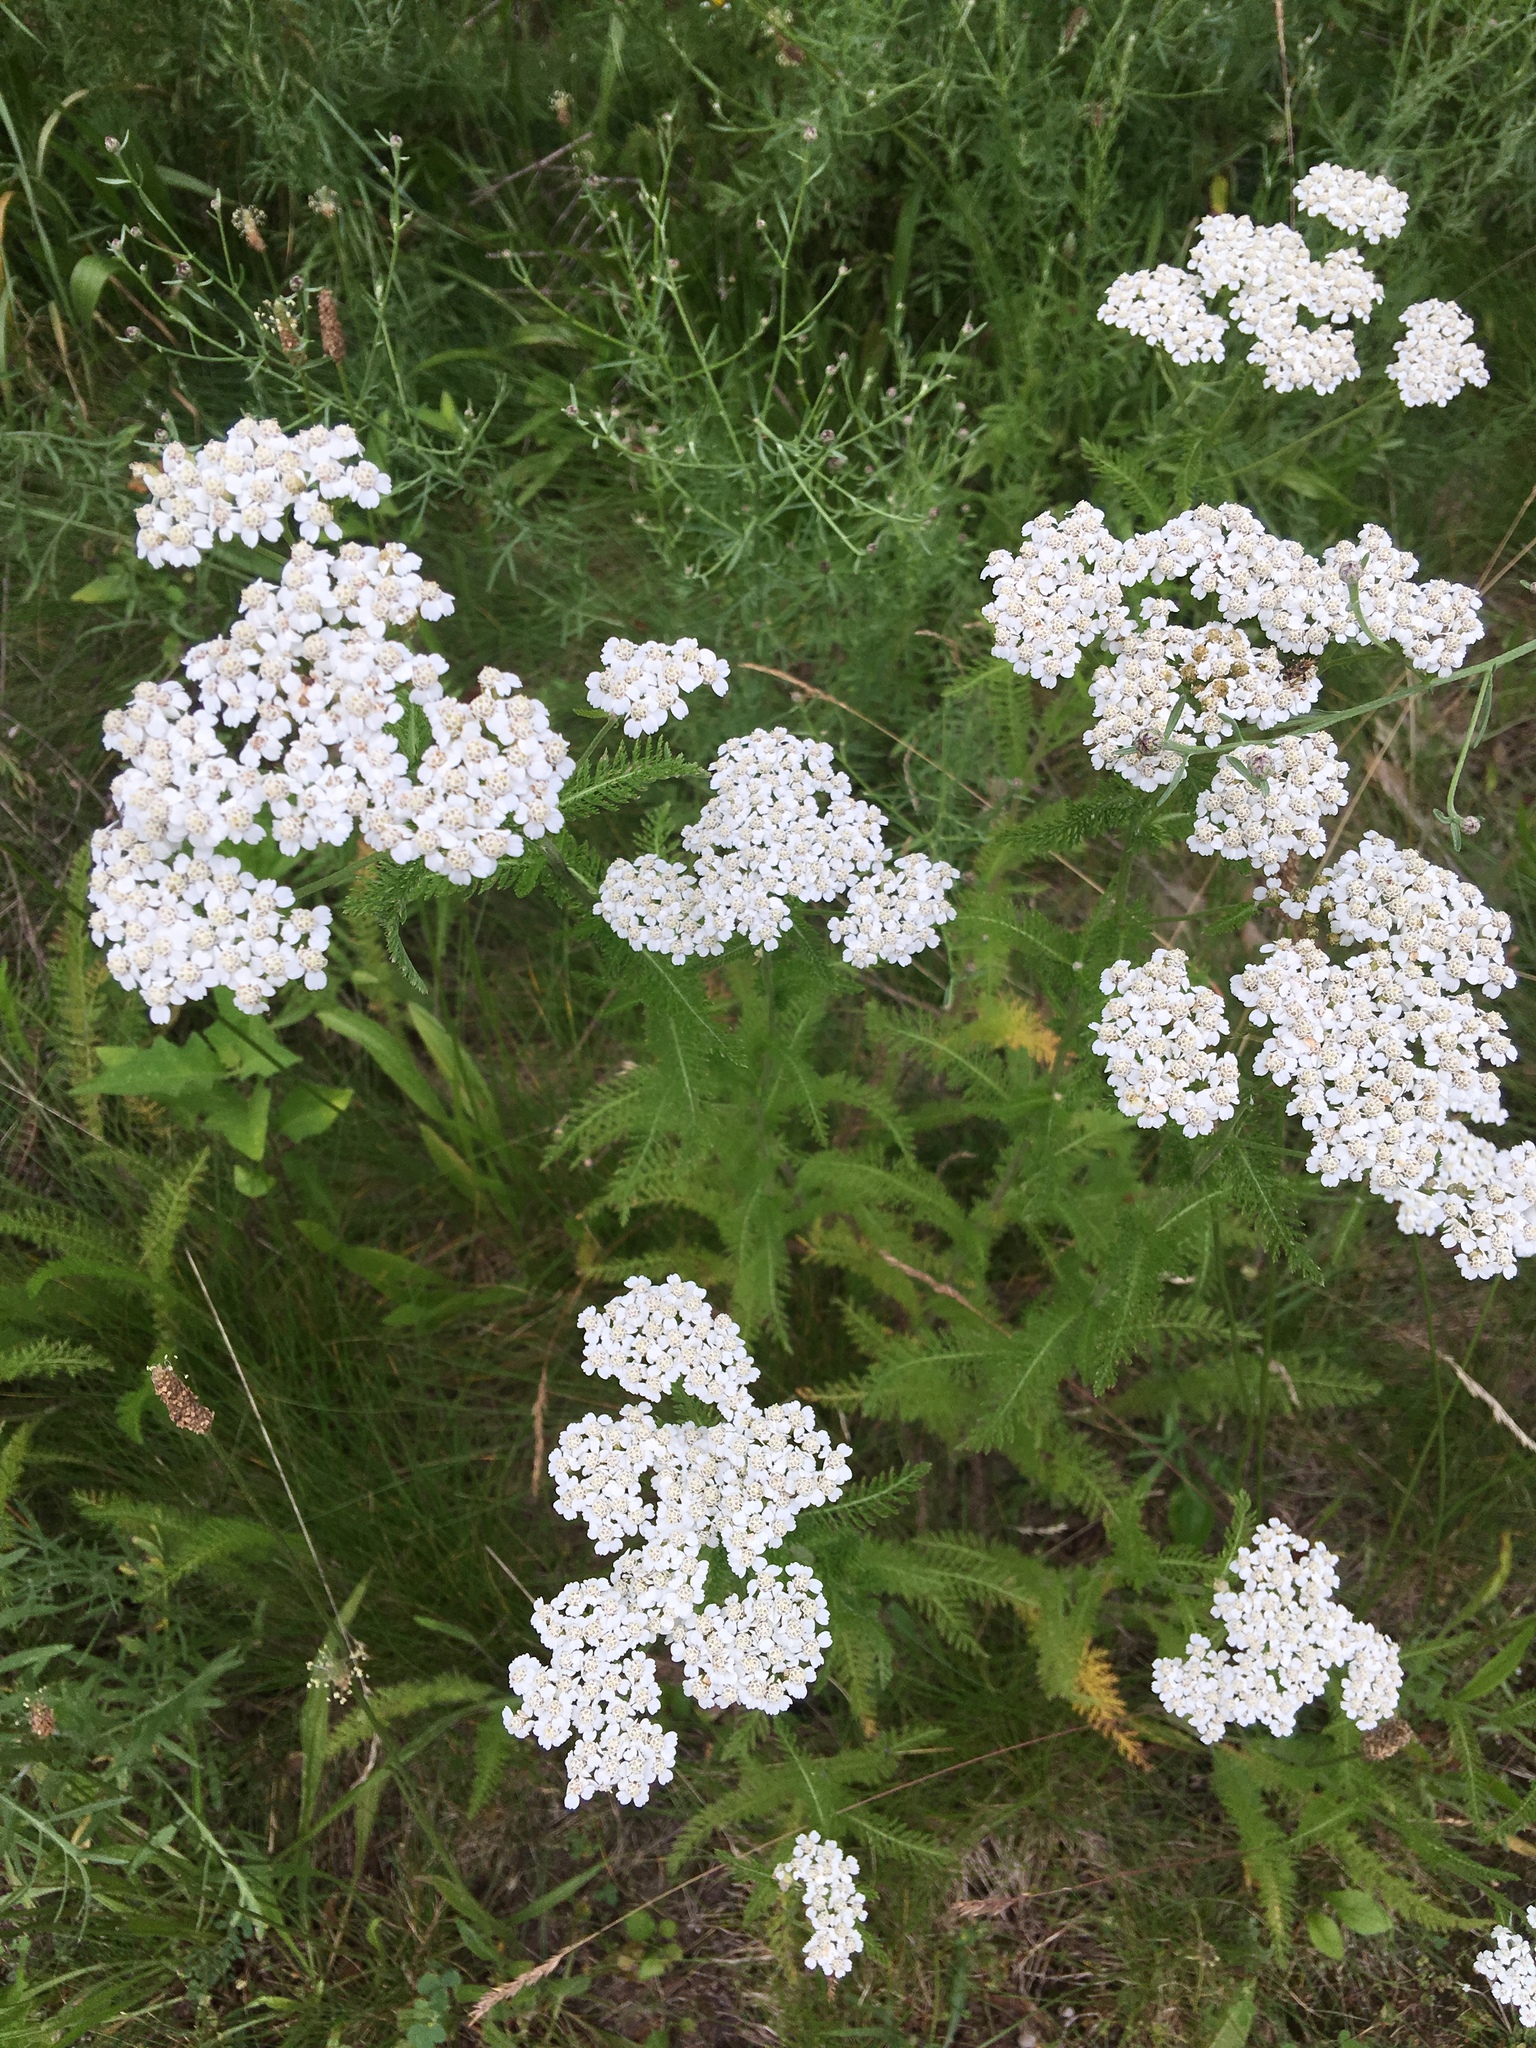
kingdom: Plantae
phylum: Tracheophyta
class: Magnoliopsida
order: Asterales
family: Asteraceae
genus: Achillea
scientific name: Achillea millefolium
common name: Yarrow
